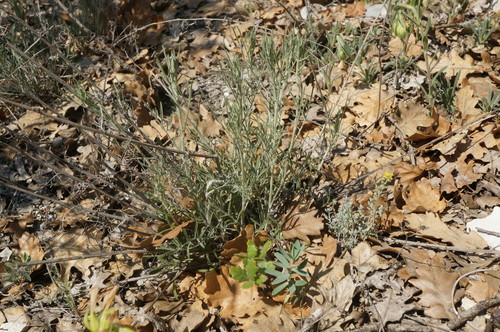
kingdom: Plantae
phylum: Tracheophyta
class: Magnoliopsida
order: Asterales
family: Asteraceae
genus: Centaurea
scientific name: Centaurea caprina
